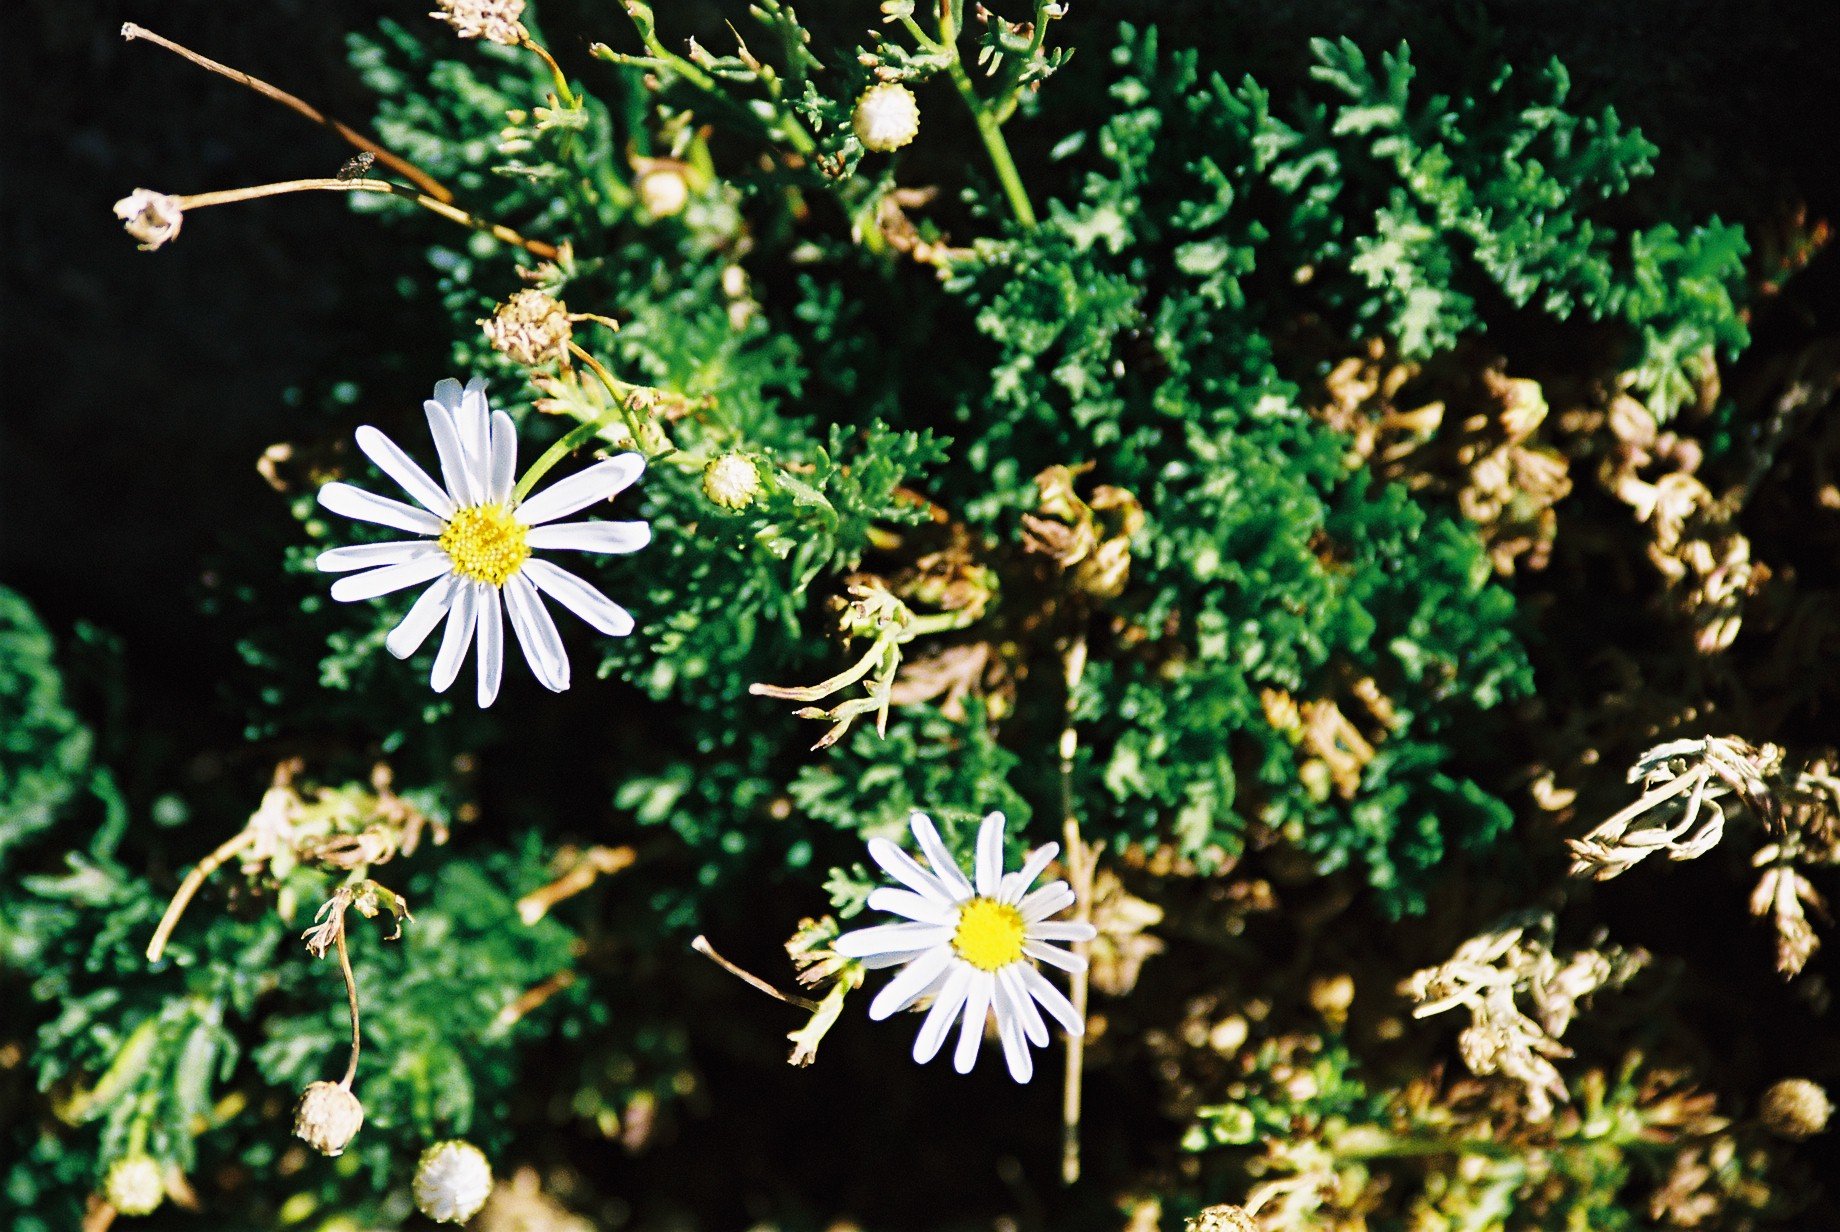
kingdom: Plantae
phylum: Tracheophyta
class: Magnoliopsida
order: Asterales
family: Asteraceae
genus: Argyranthemum
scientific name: Argyranthemum tenerifae
